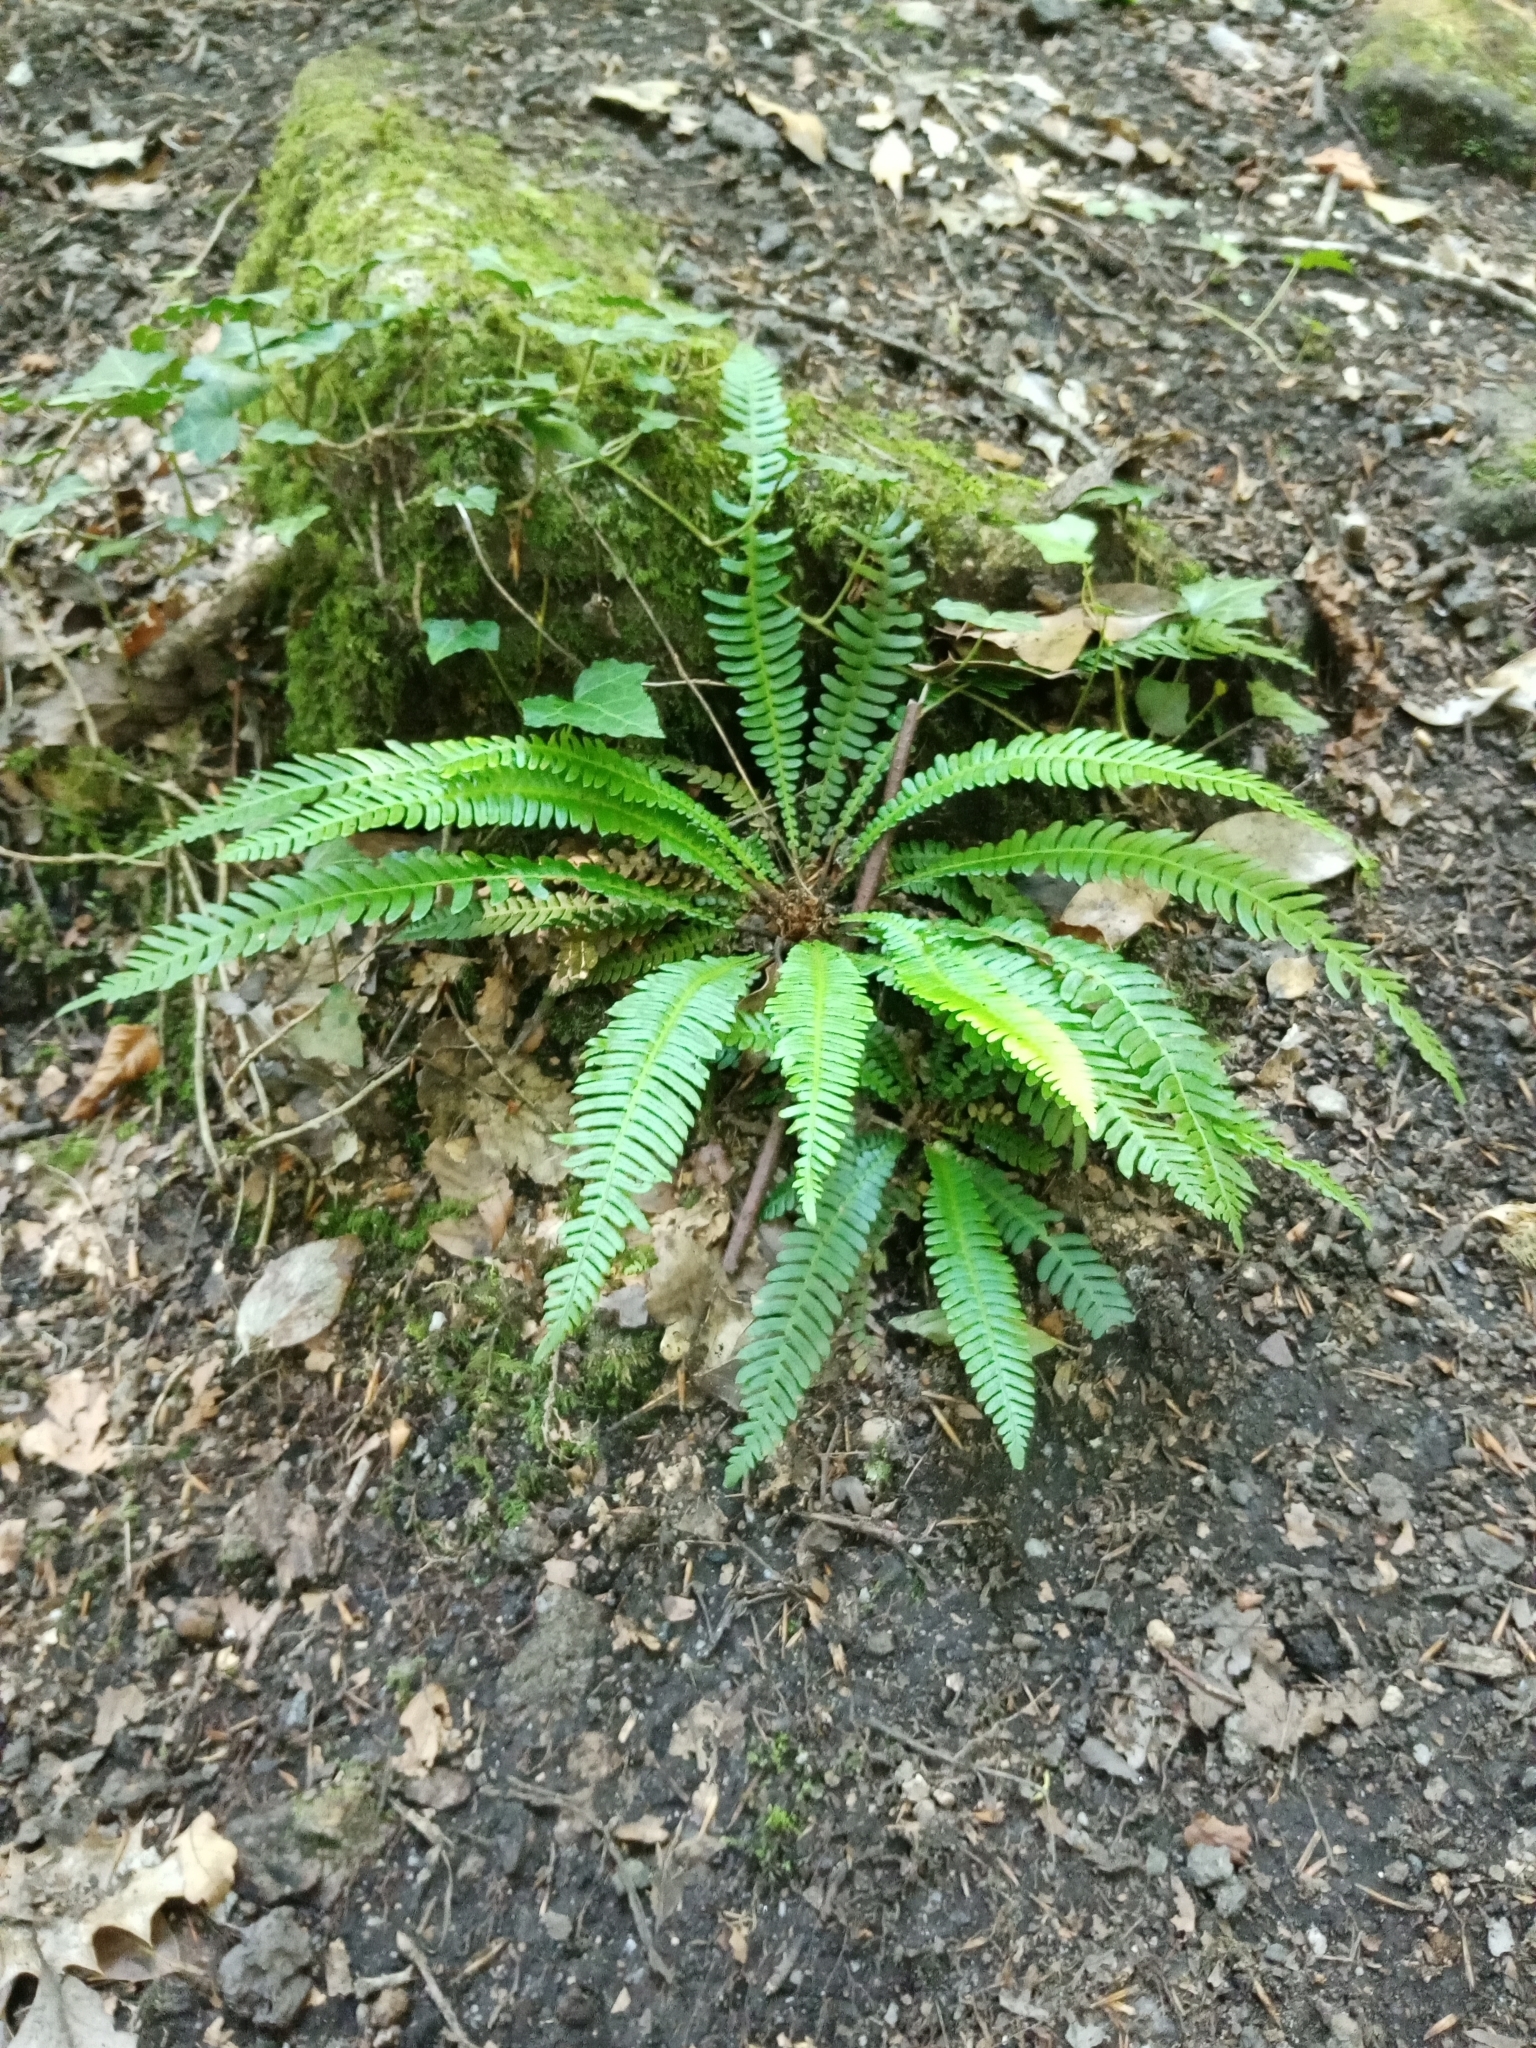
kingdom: Plantae
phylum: Tracheophyta
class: Polypodiopsida
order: Polypodiales
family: Blechnaceae
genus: Struthiopteris
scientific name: Struthiopteris spicant
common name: Deer fern
